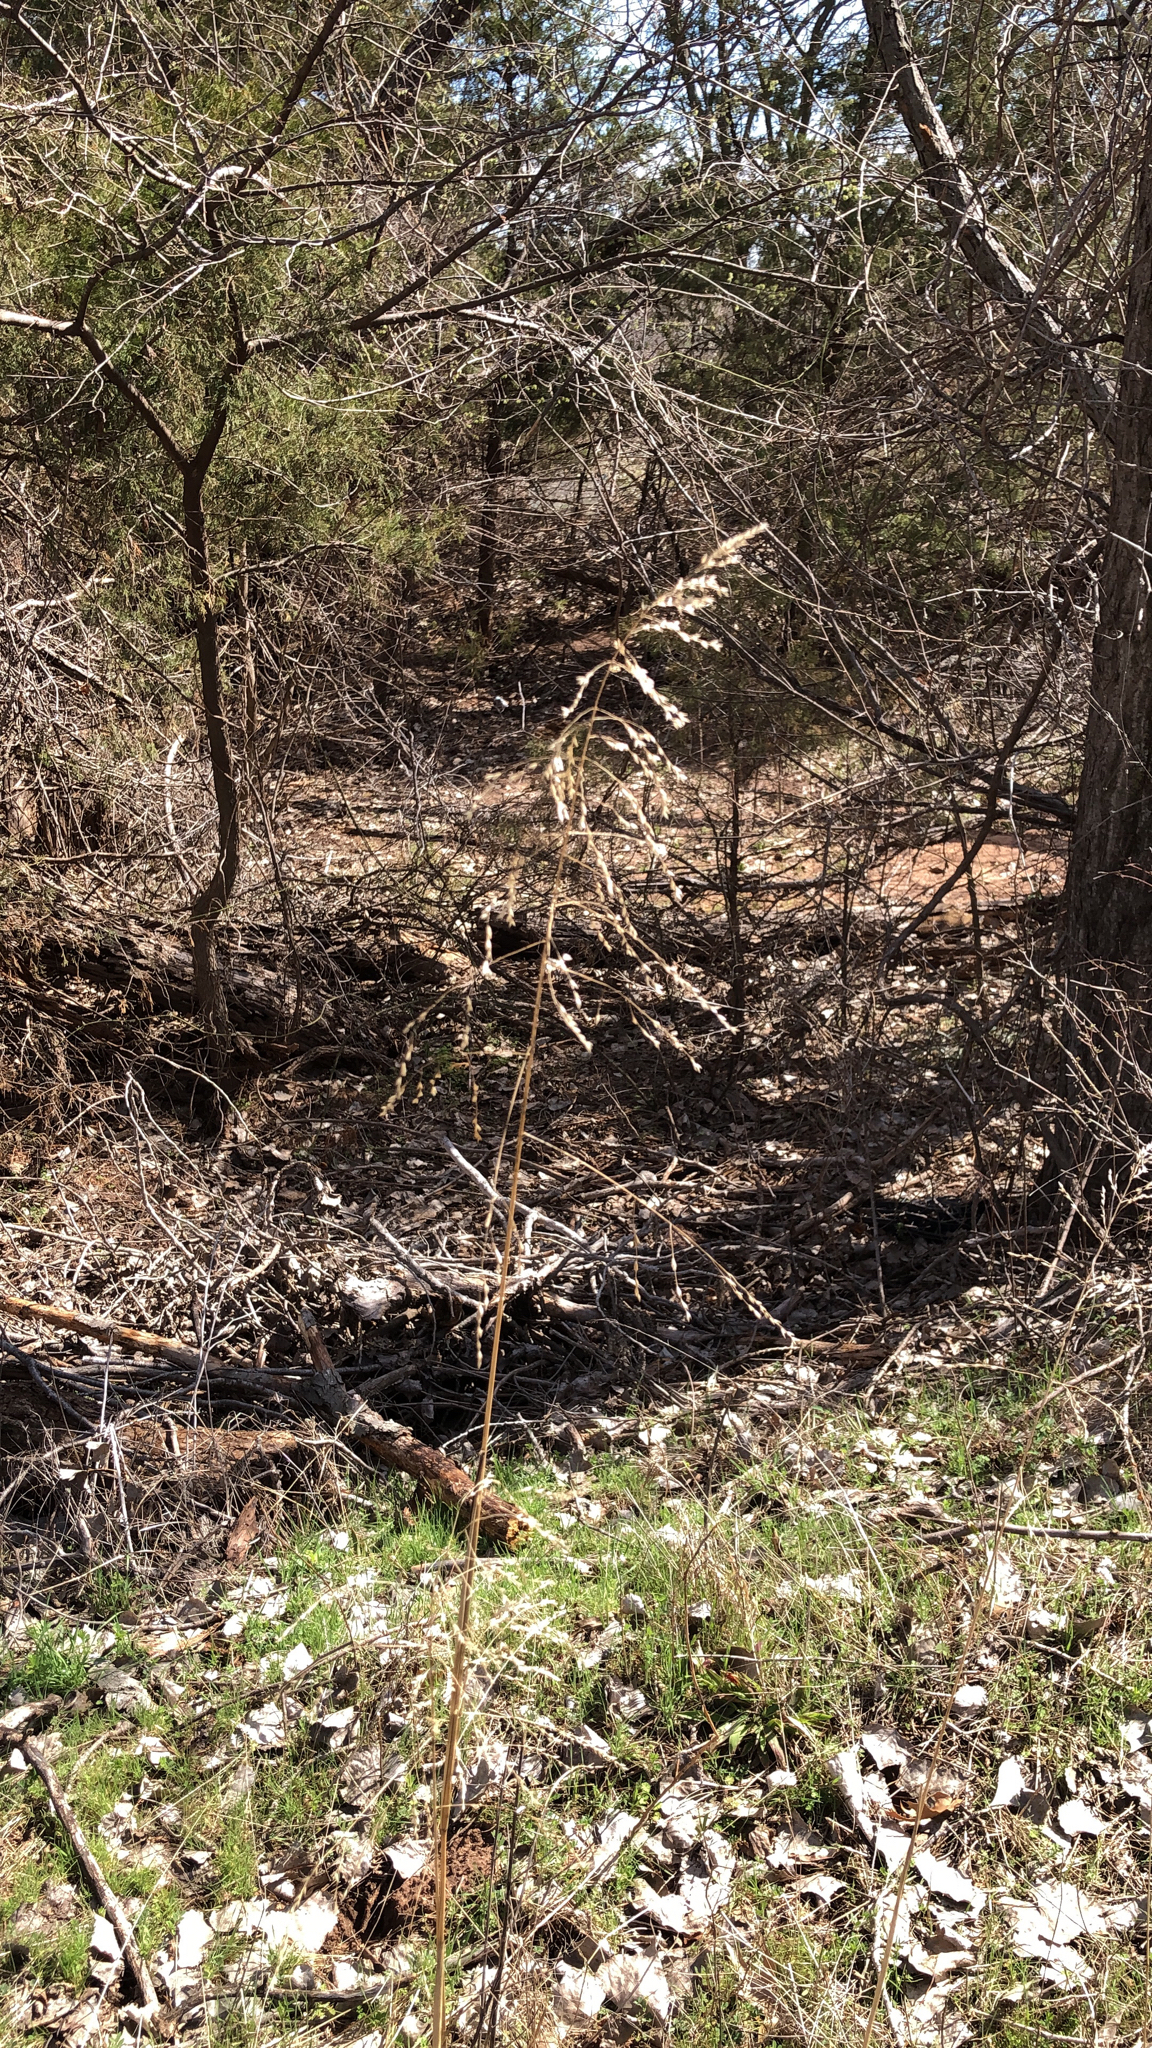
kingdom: Plantae
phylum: Tracheophyta
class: Liliopsida
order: Poales
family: Poaceae
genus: Tridens
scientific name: Tridens flavus
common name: Purpletop
